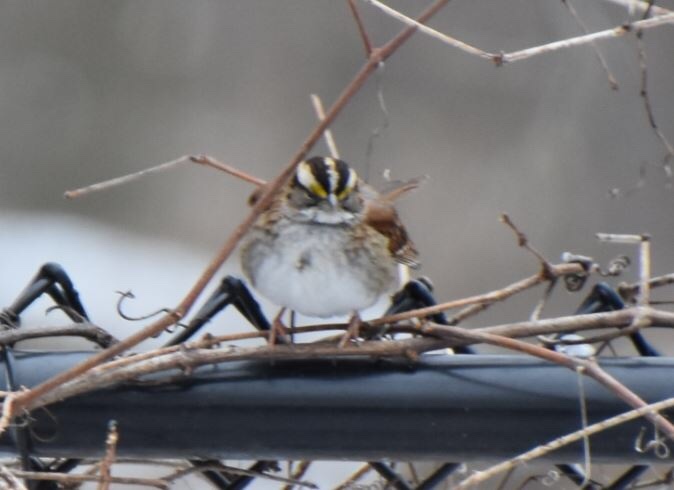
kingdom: Animalia
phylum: Chordata
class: Aves
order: Passeriformes
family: Passerellidae
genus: Zonotrichia
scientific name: Zonotrichia albicollis
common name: White-throated sparrow
